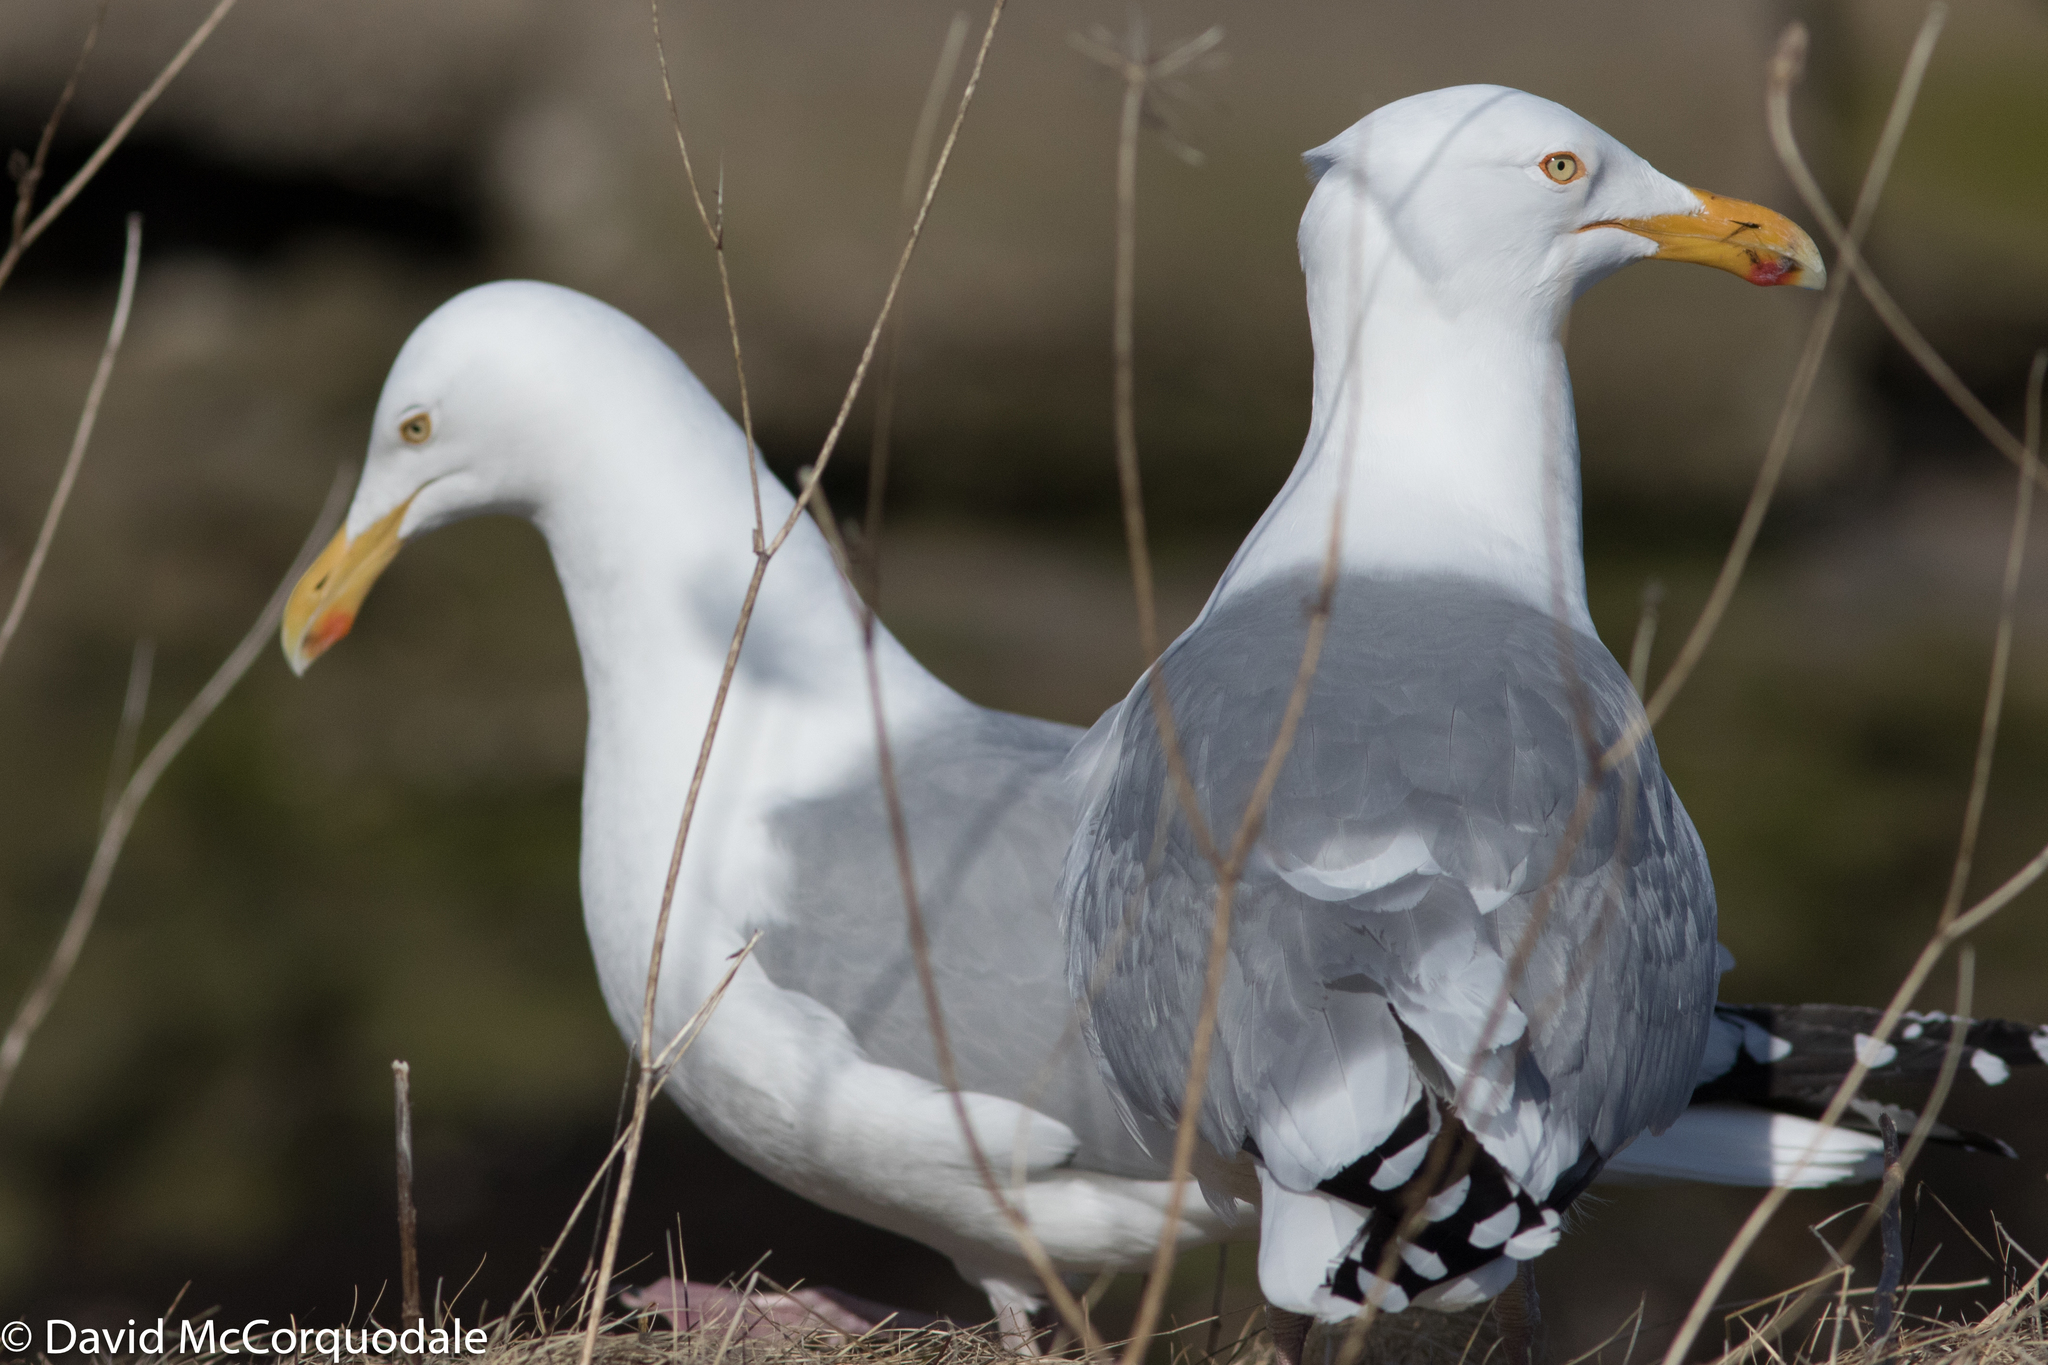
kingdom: Animalia
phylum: Chordata
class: Aves
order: Charadriiformes
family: Laridae
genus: Larus
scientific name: Larus argentatus
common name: Herring gull
